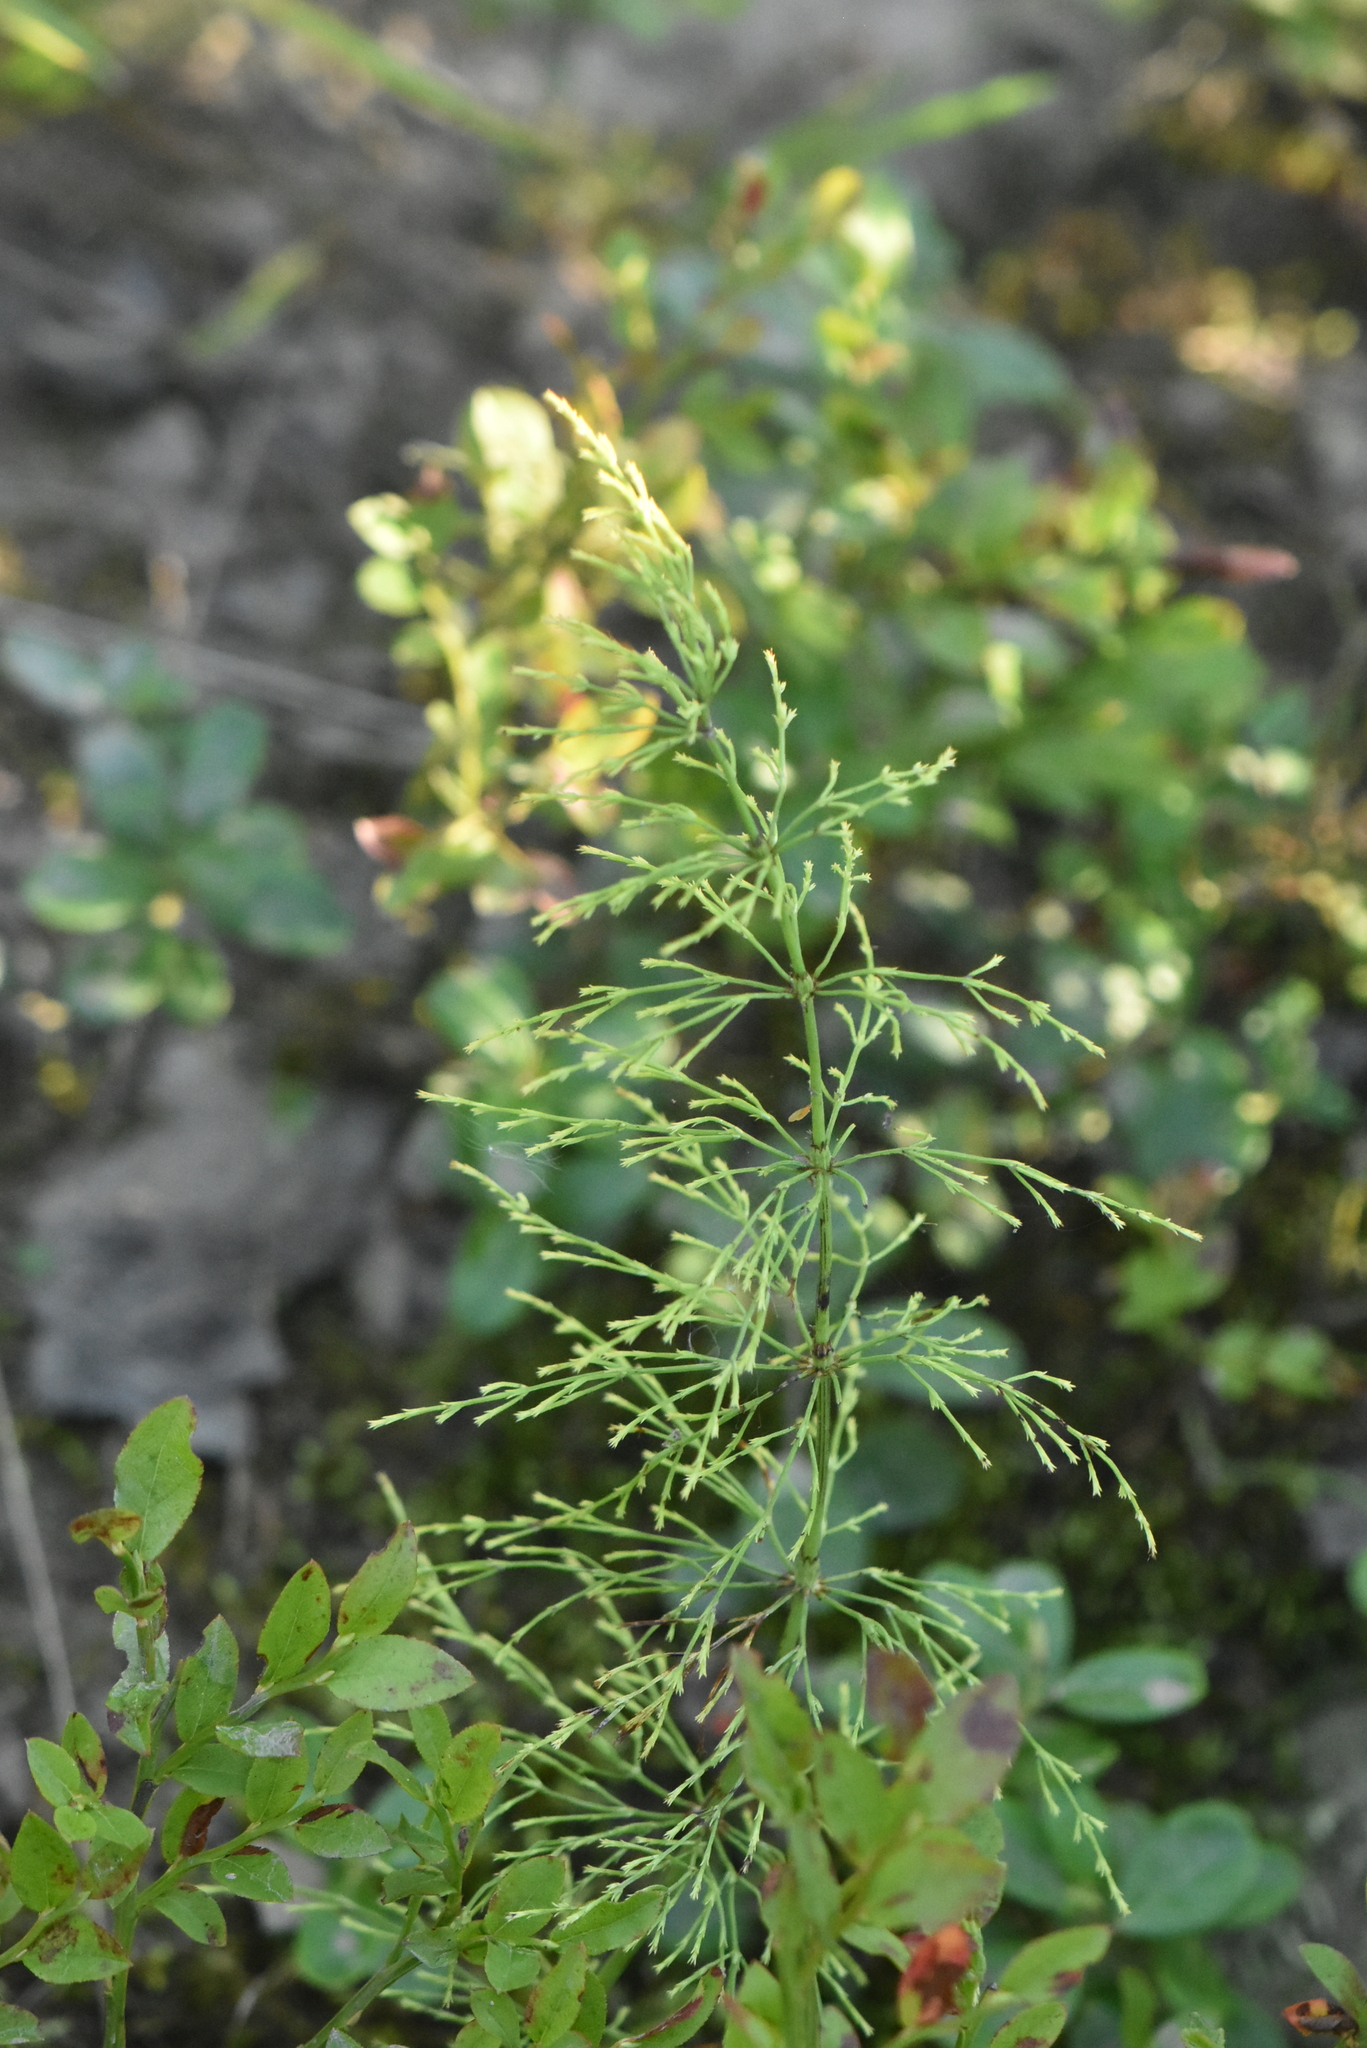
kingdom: Plantae
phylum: Tracheophyta
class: Polypodiopsida
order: Equisetales
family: Equisetaceae
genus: Equisetum
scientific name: Equisetum sylvaticum
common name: Wood horsetail
